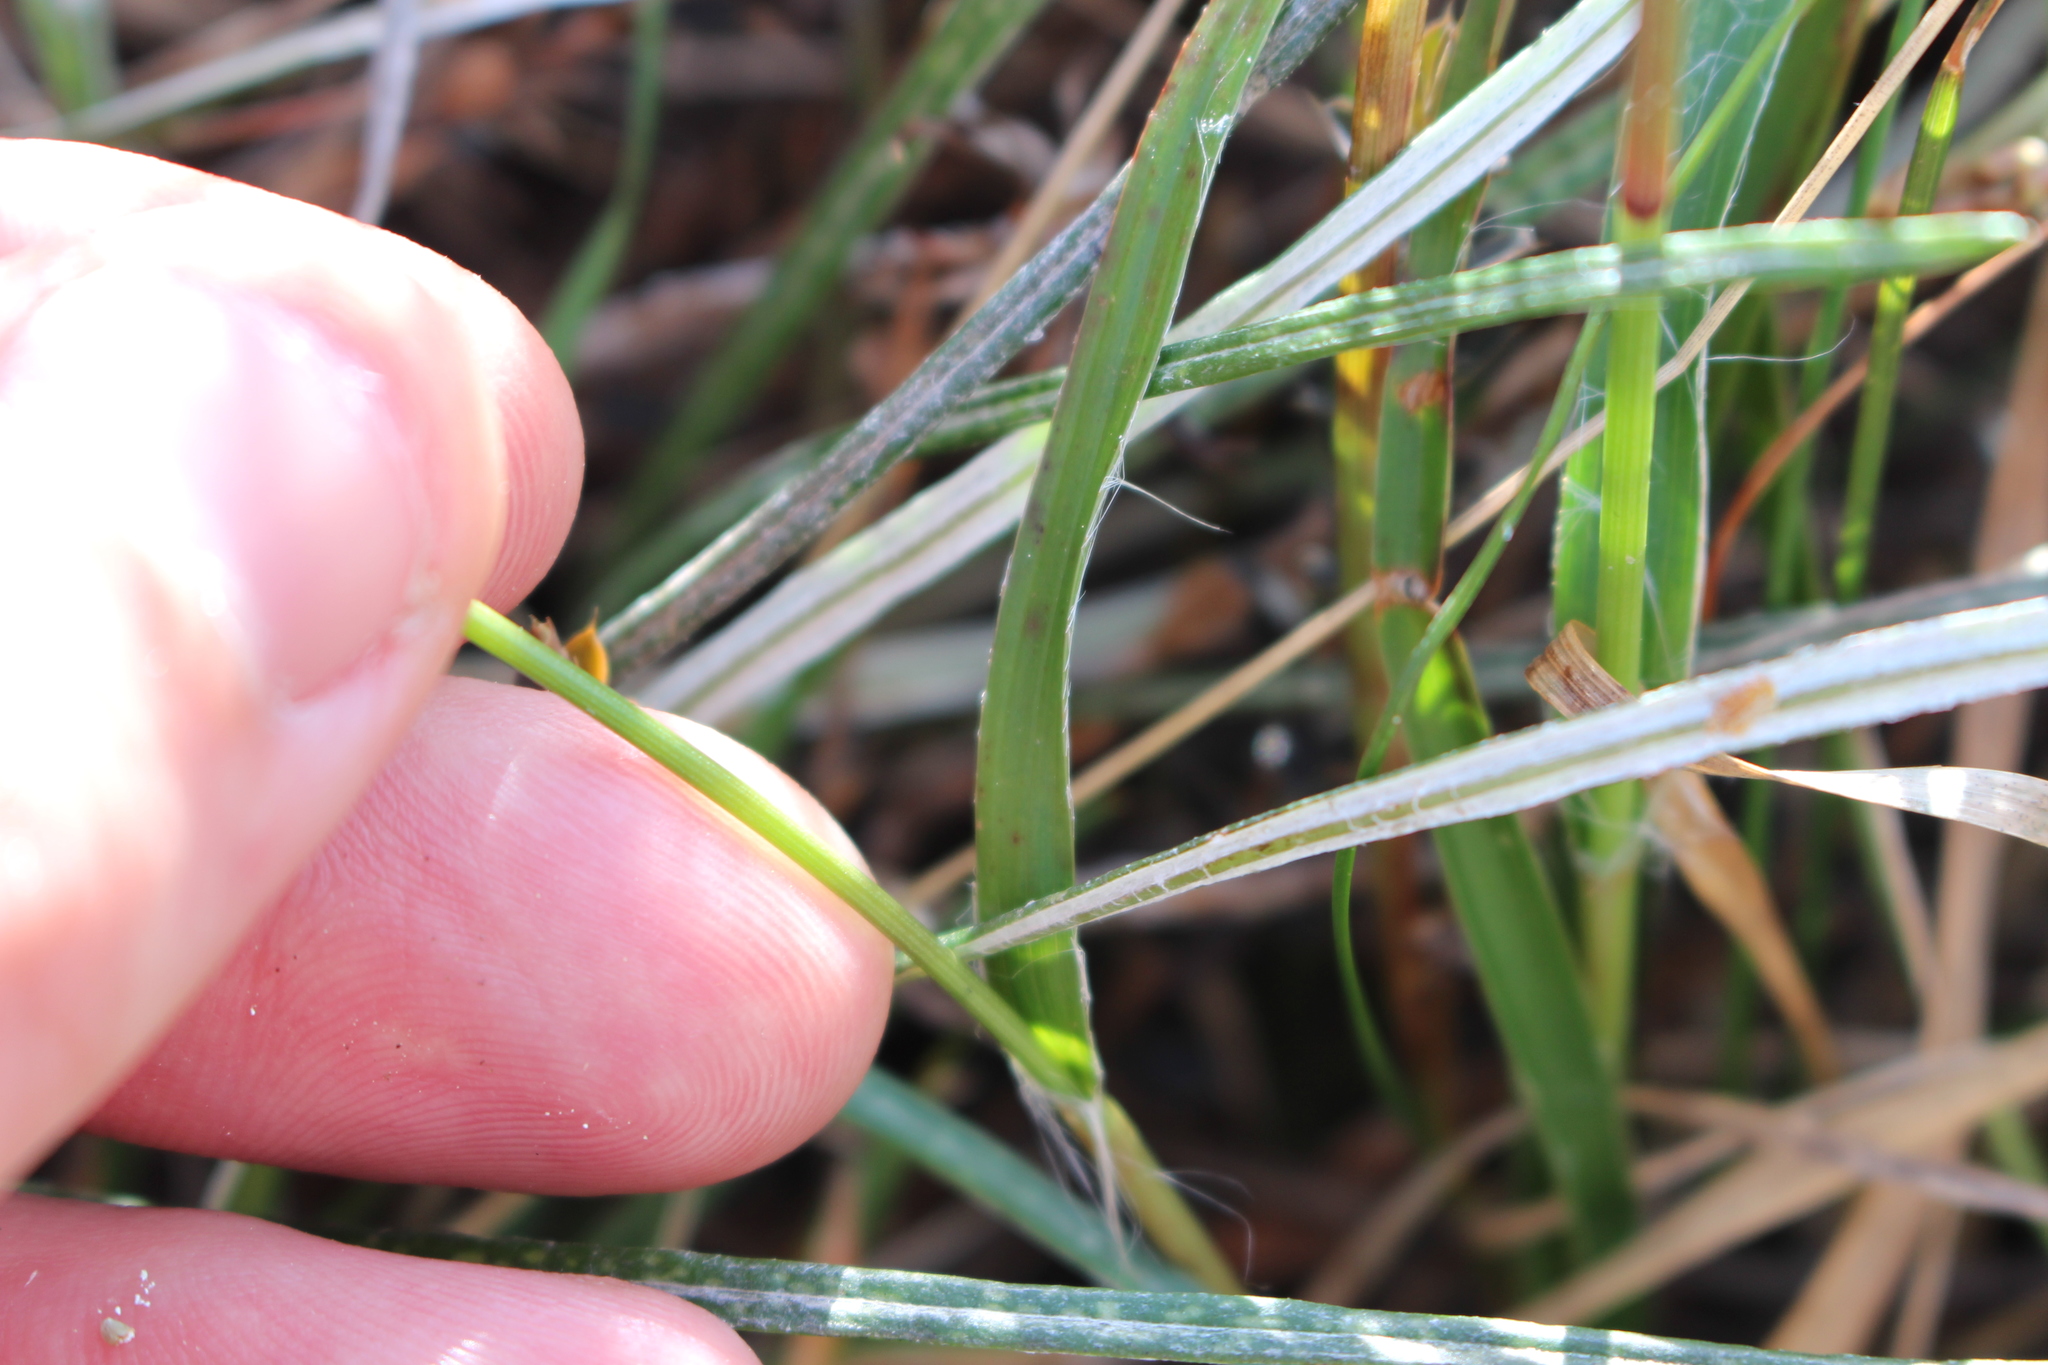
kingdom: Plantae
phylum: Tracheophyta
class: Liliopsida
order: Poales
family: Juncaceae
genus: Luzula
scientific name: Luzula banksiana
